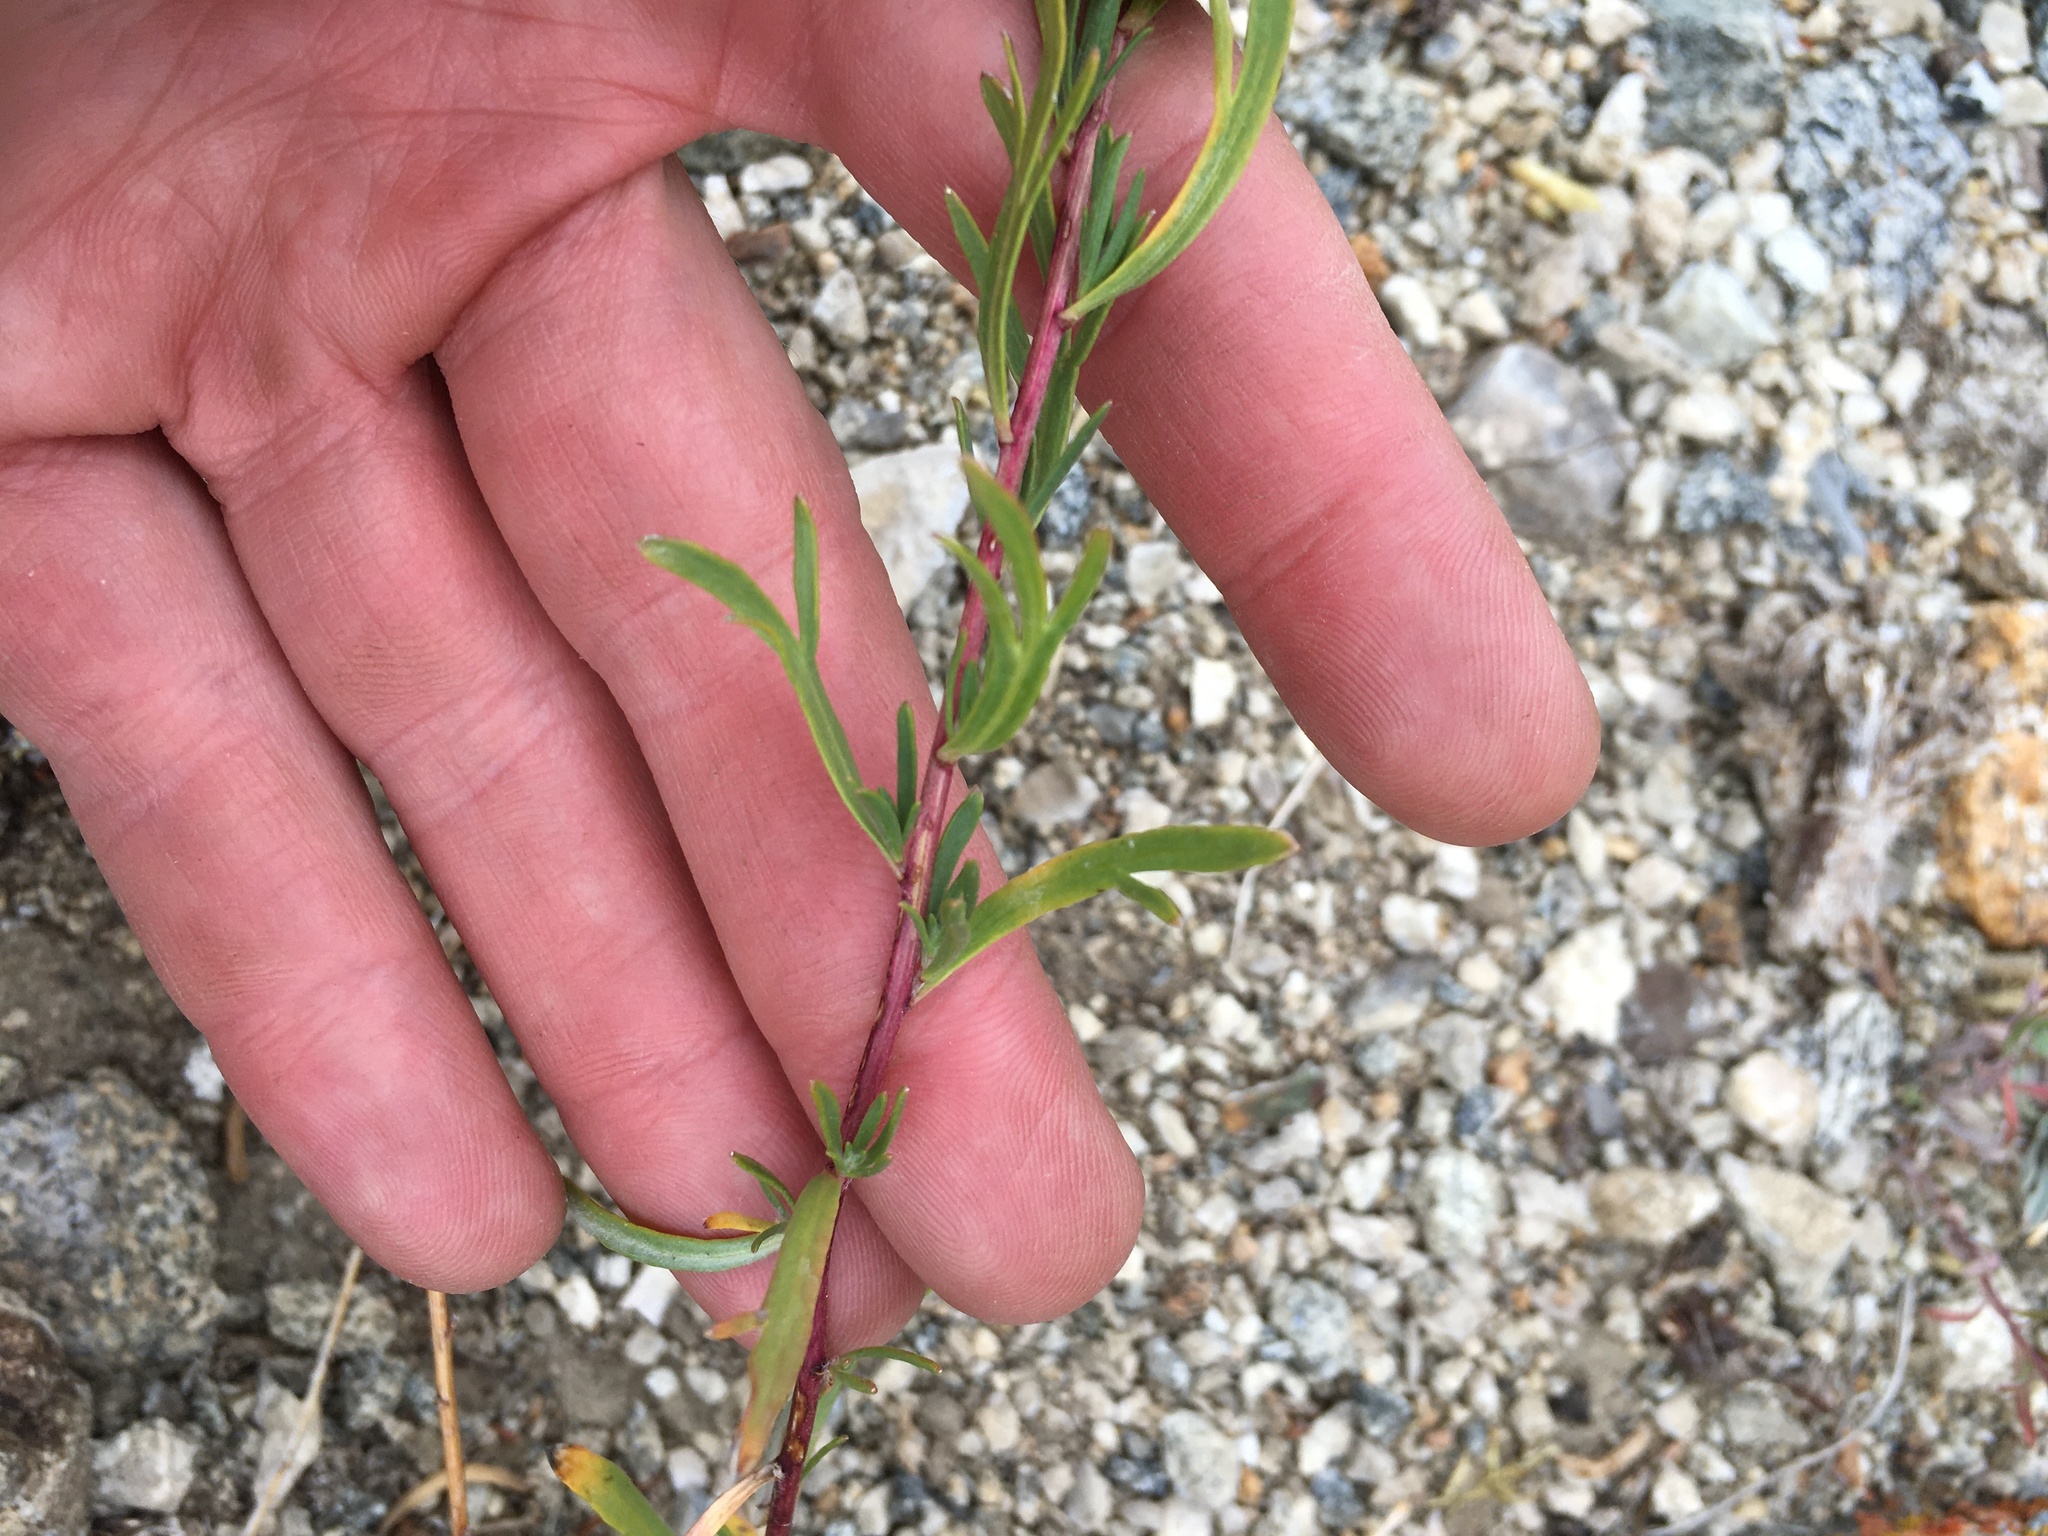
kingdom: Plantae
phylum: Tracheophyta
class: Magnoliopsida
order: Asterales
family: Asteraceae
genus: Artemisia
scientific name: Artemisia dracunculus
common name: Tarragon
